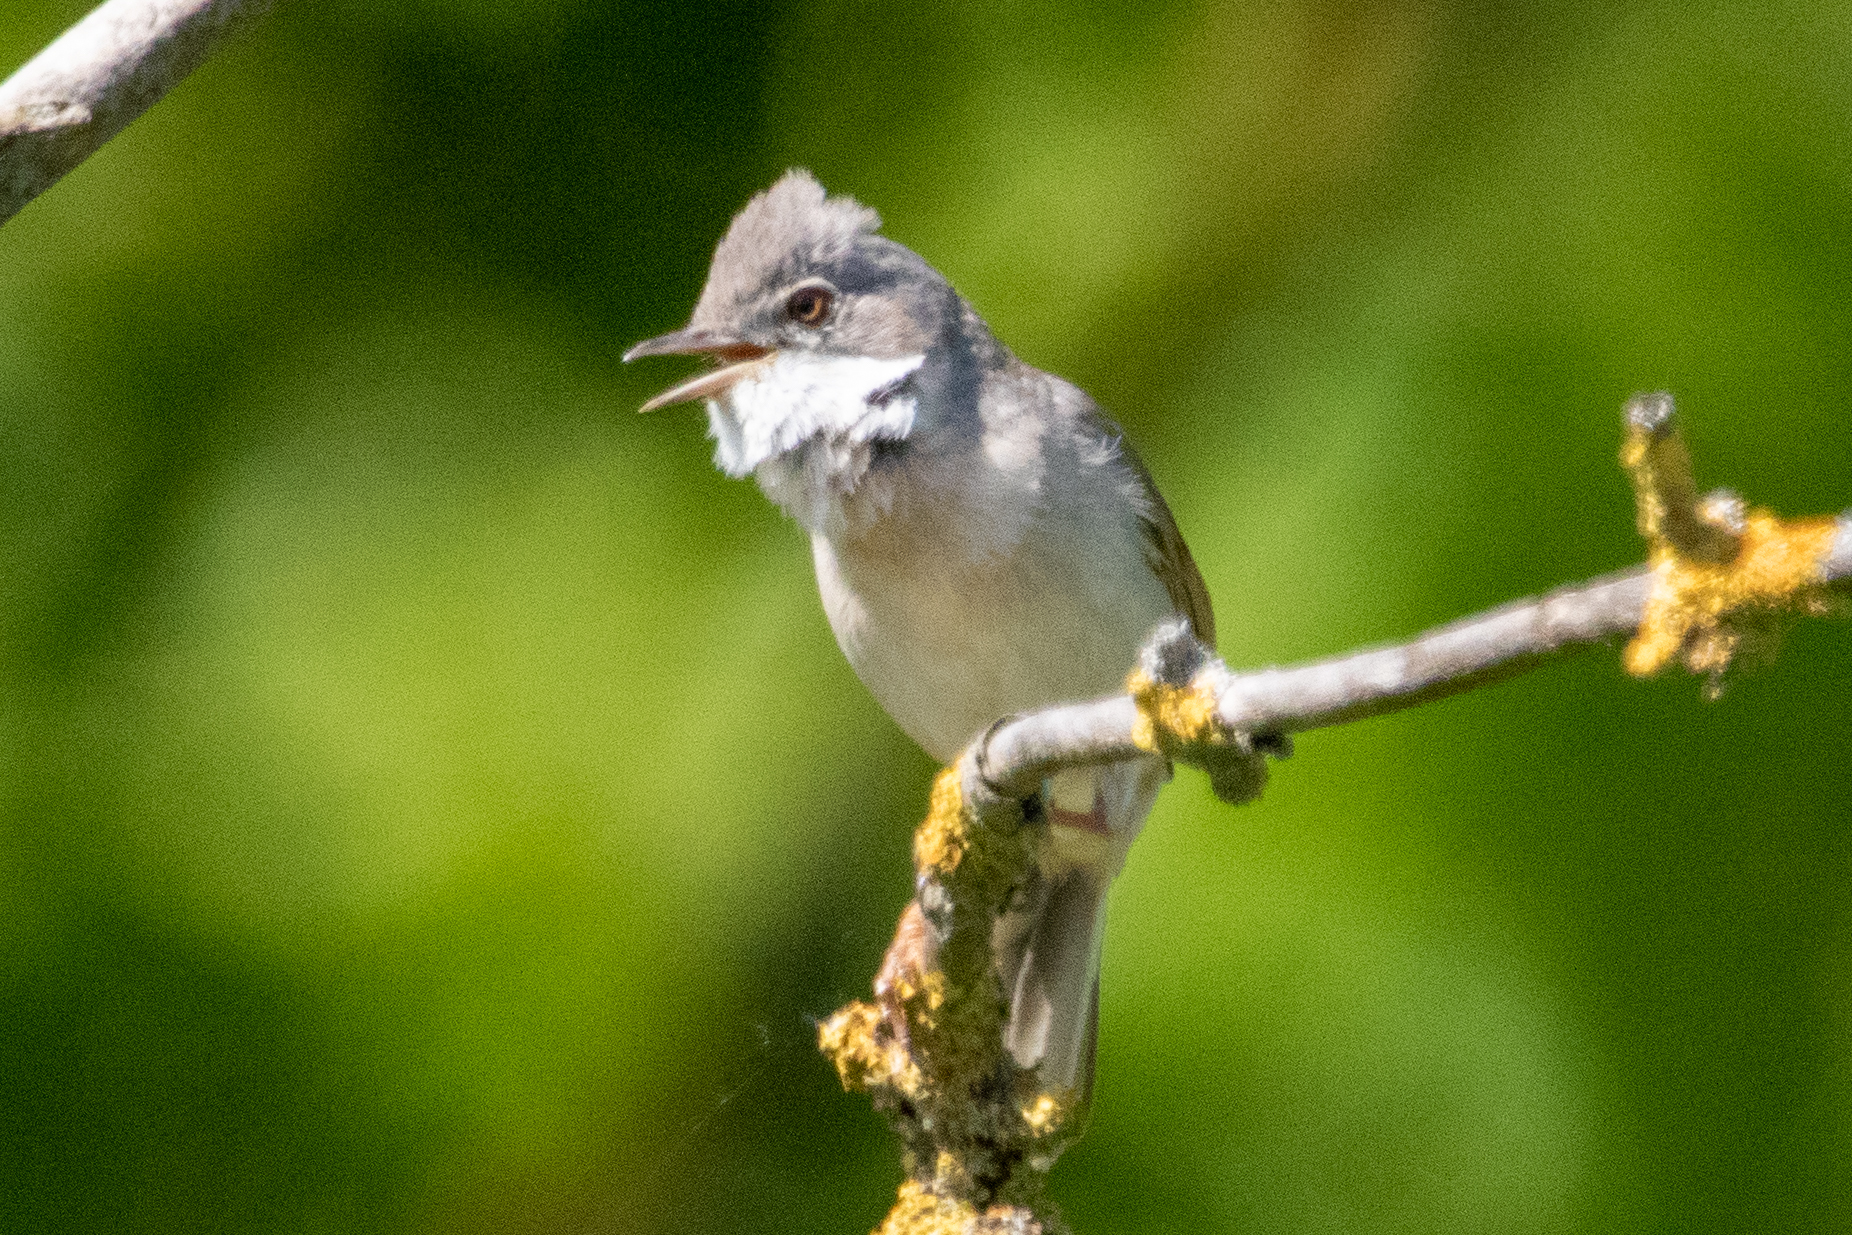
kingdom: Animalia
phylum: Chordata
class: Aves
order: Passeriformes
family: Sylviidae
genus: Sylvia
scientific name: Sylvia communis
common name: Common whitethroat
